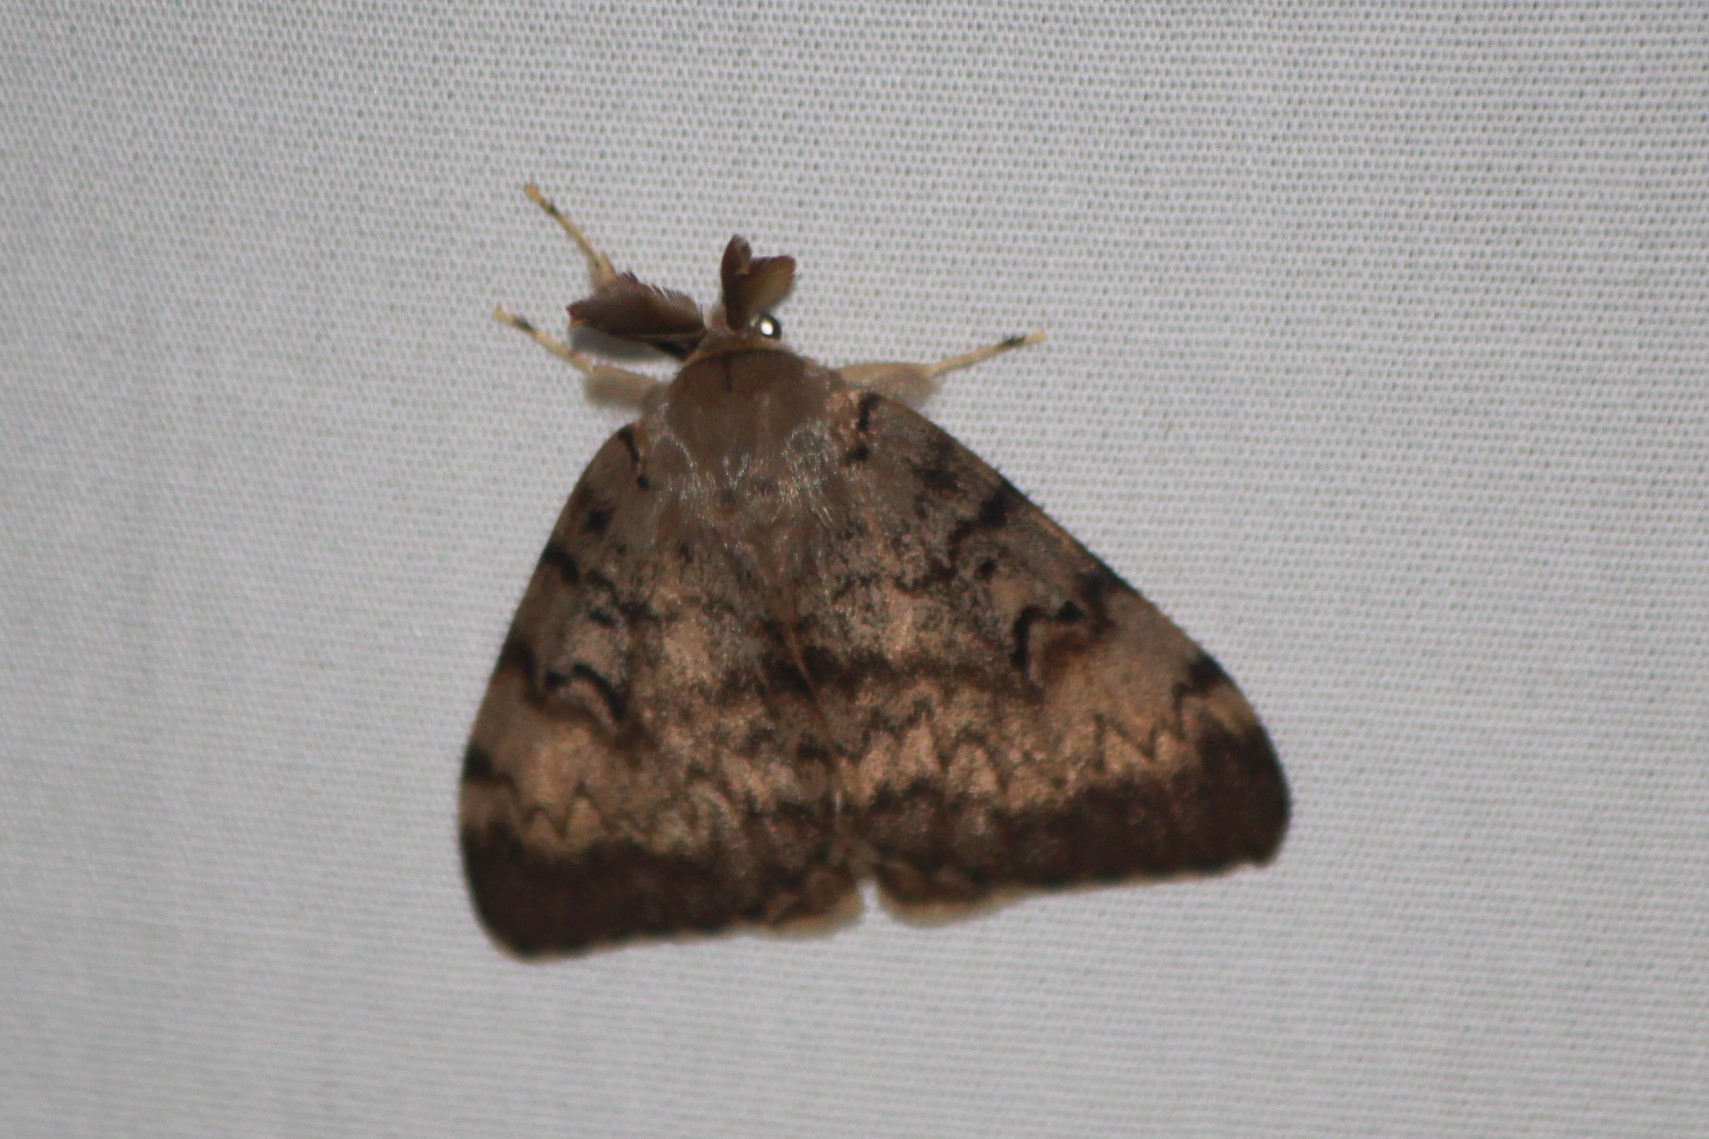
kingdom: Animalia
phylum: Arthropoda
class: Insecta
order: Lepidoptera
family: Erebidae
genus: Lymantria
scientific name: Lymantria dispar
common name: Gypsy moth
